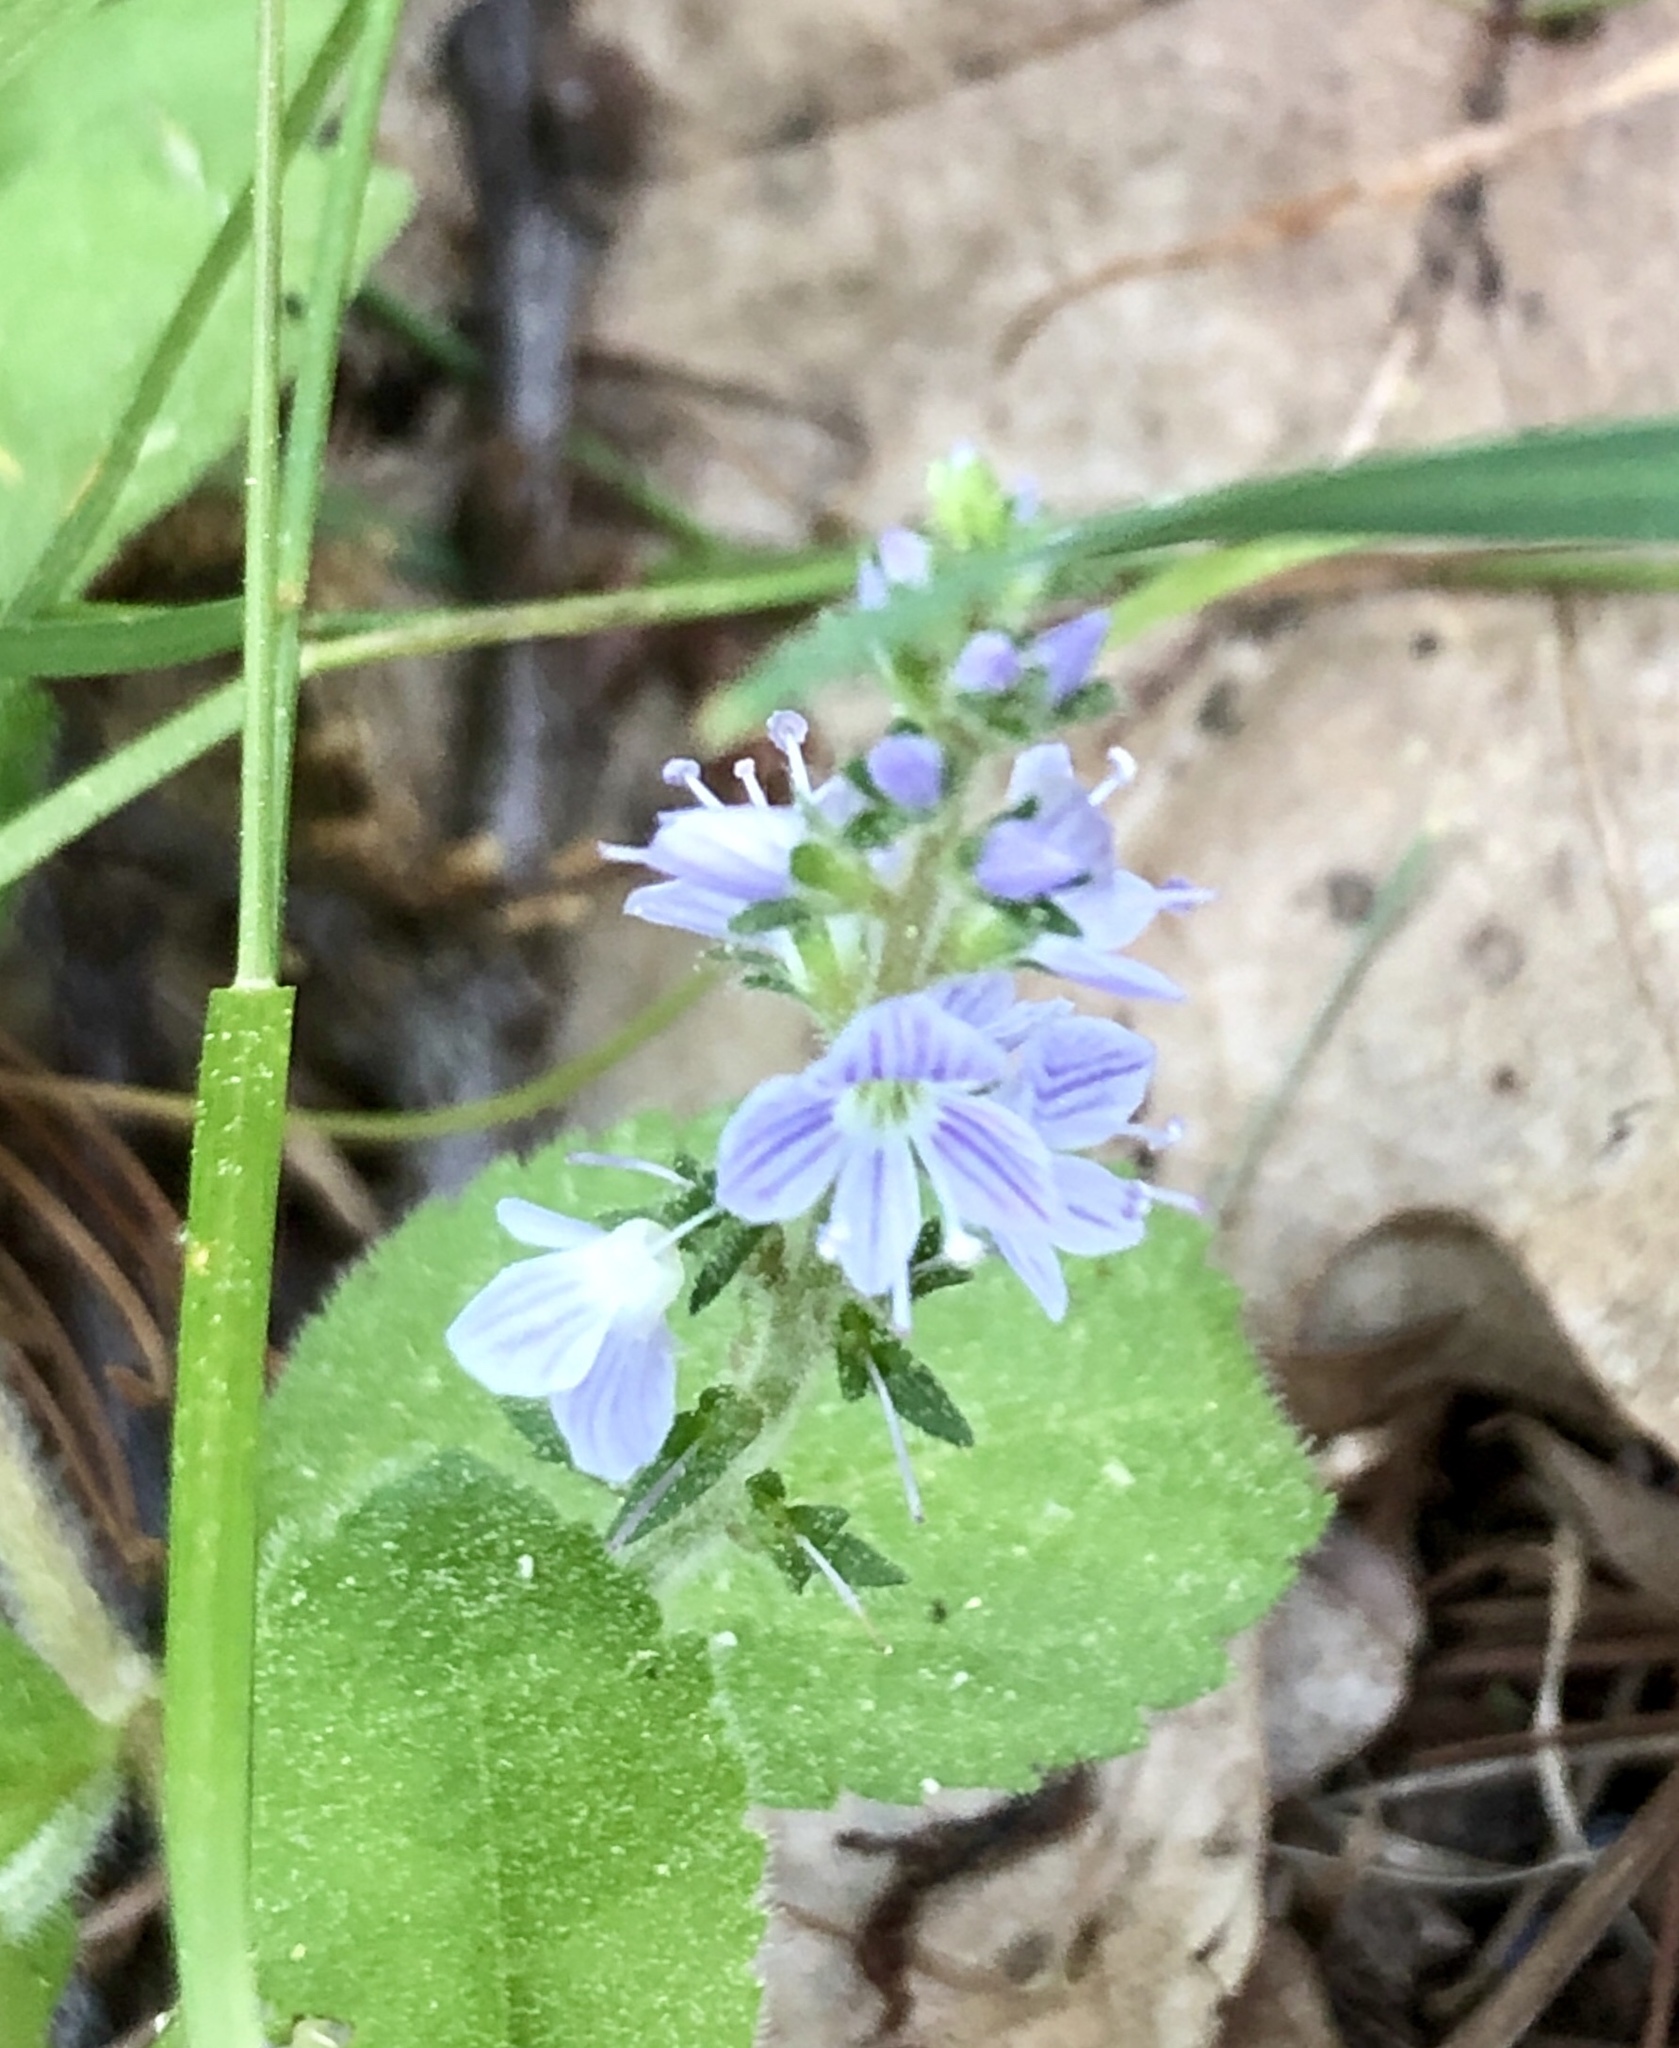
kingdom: Plantae
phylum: Tracheophyta
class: Magnoliopsida
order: Lamiales
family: Plantaginaceae
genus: Veronica
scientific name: Veronica officinalis
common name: Common speedwell
